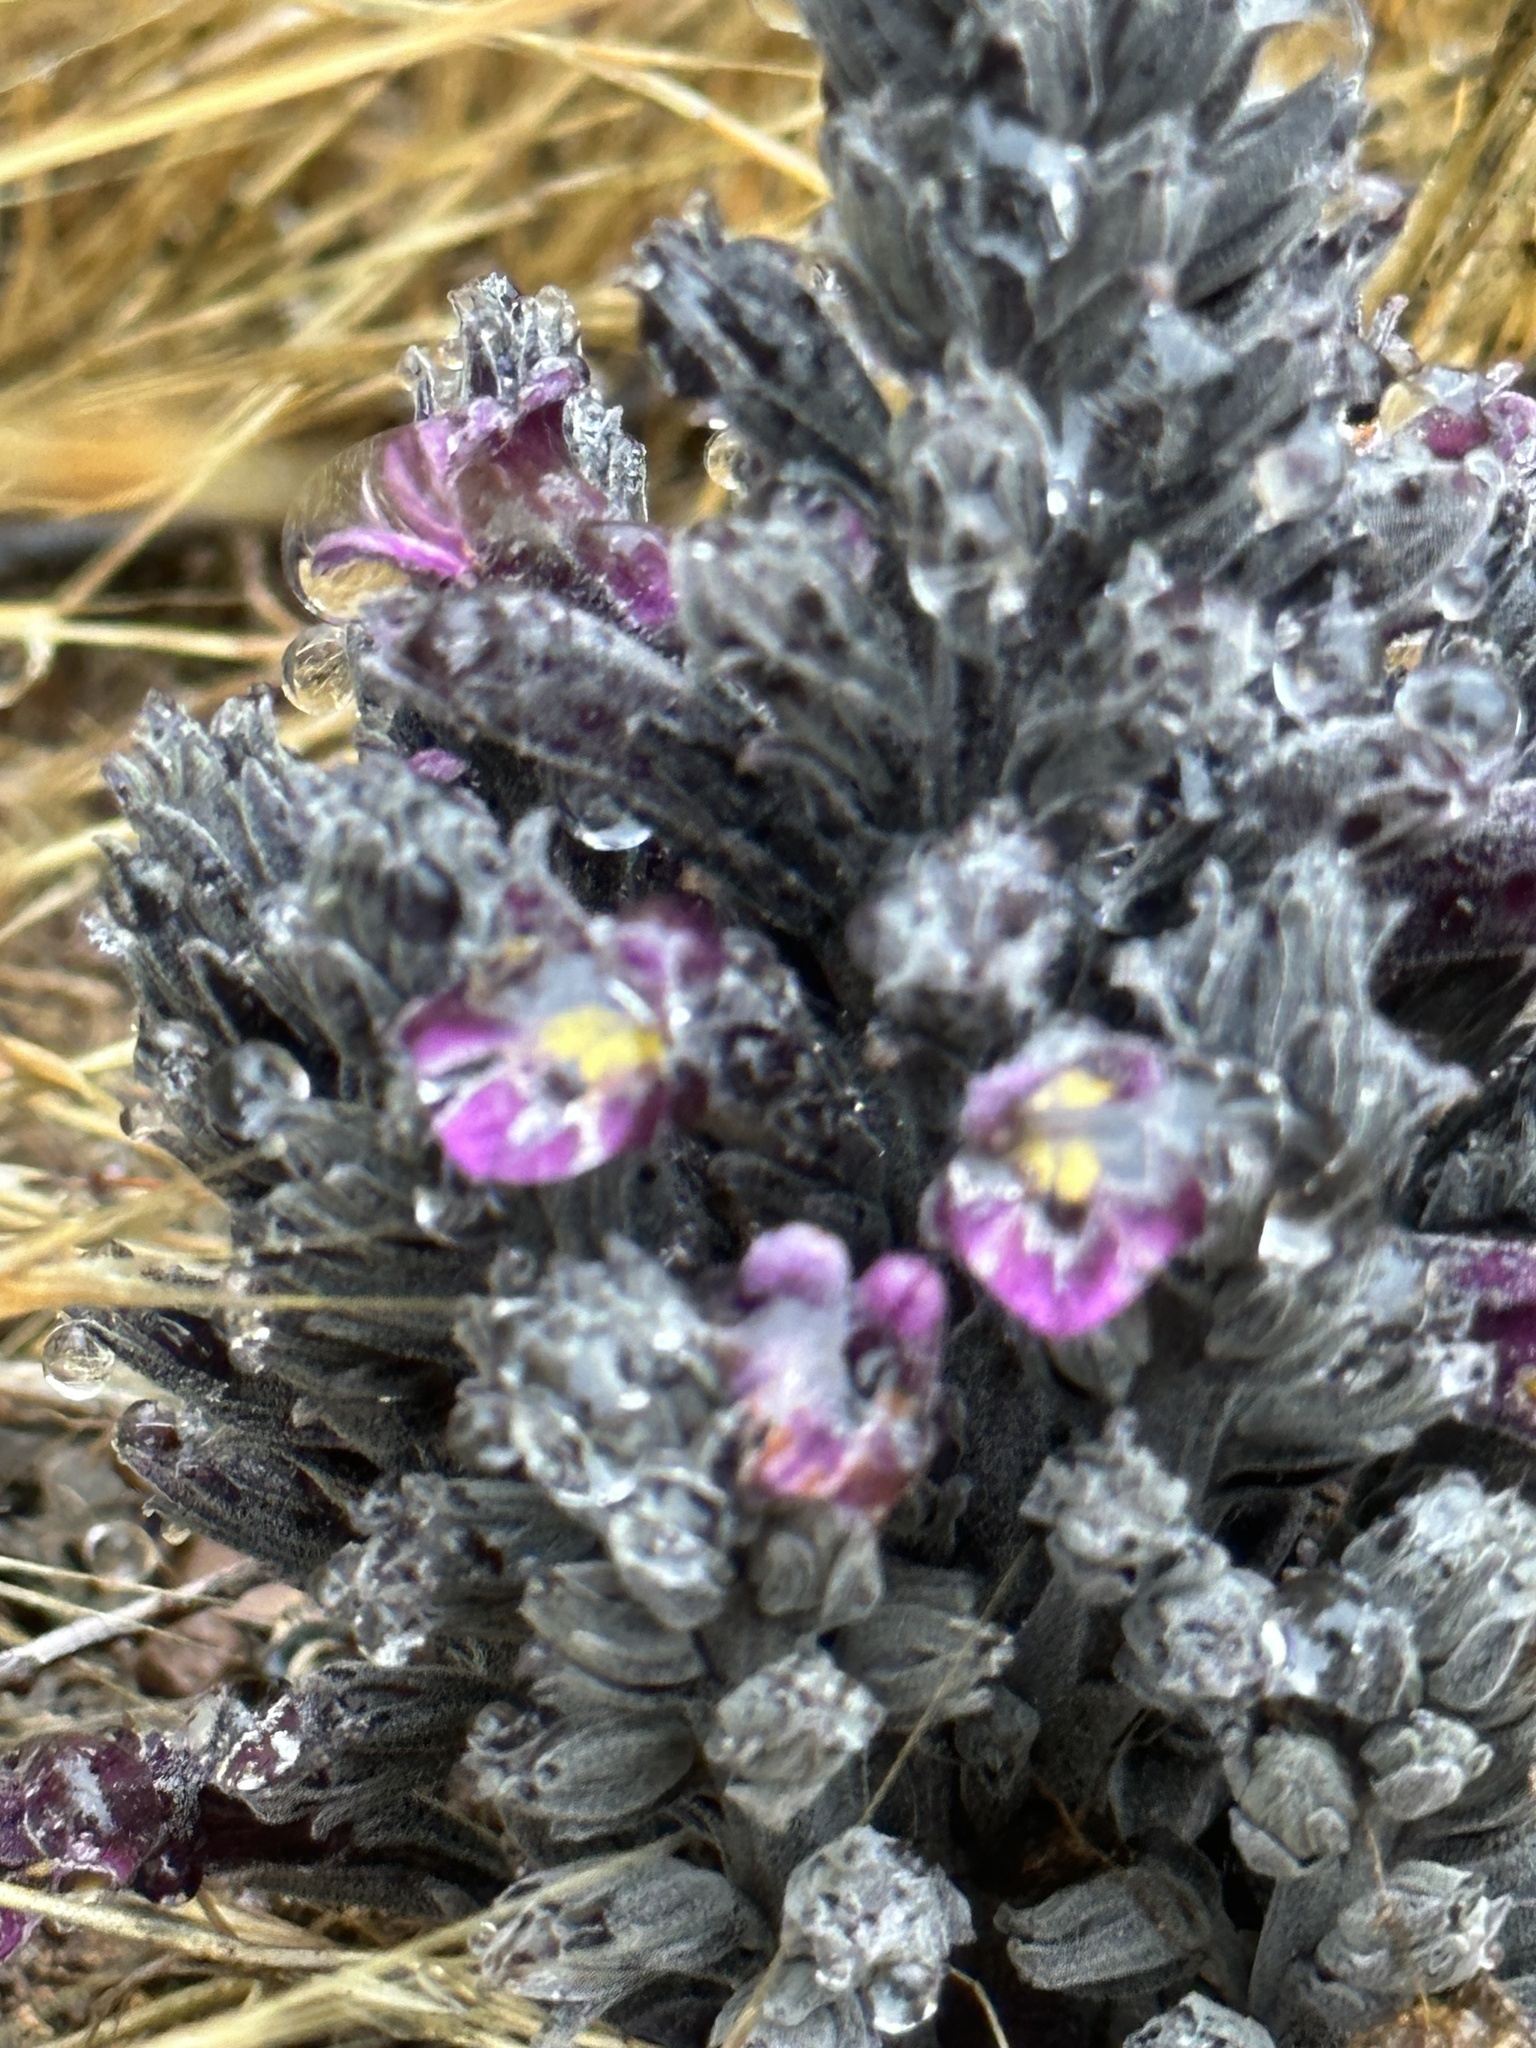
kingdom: Plantae
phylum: Tracheophyta
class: Magnoliopsida
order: Lamiales
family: Orobanchaceae
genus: Aphyllon
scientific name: Aphyllon tuberosum
